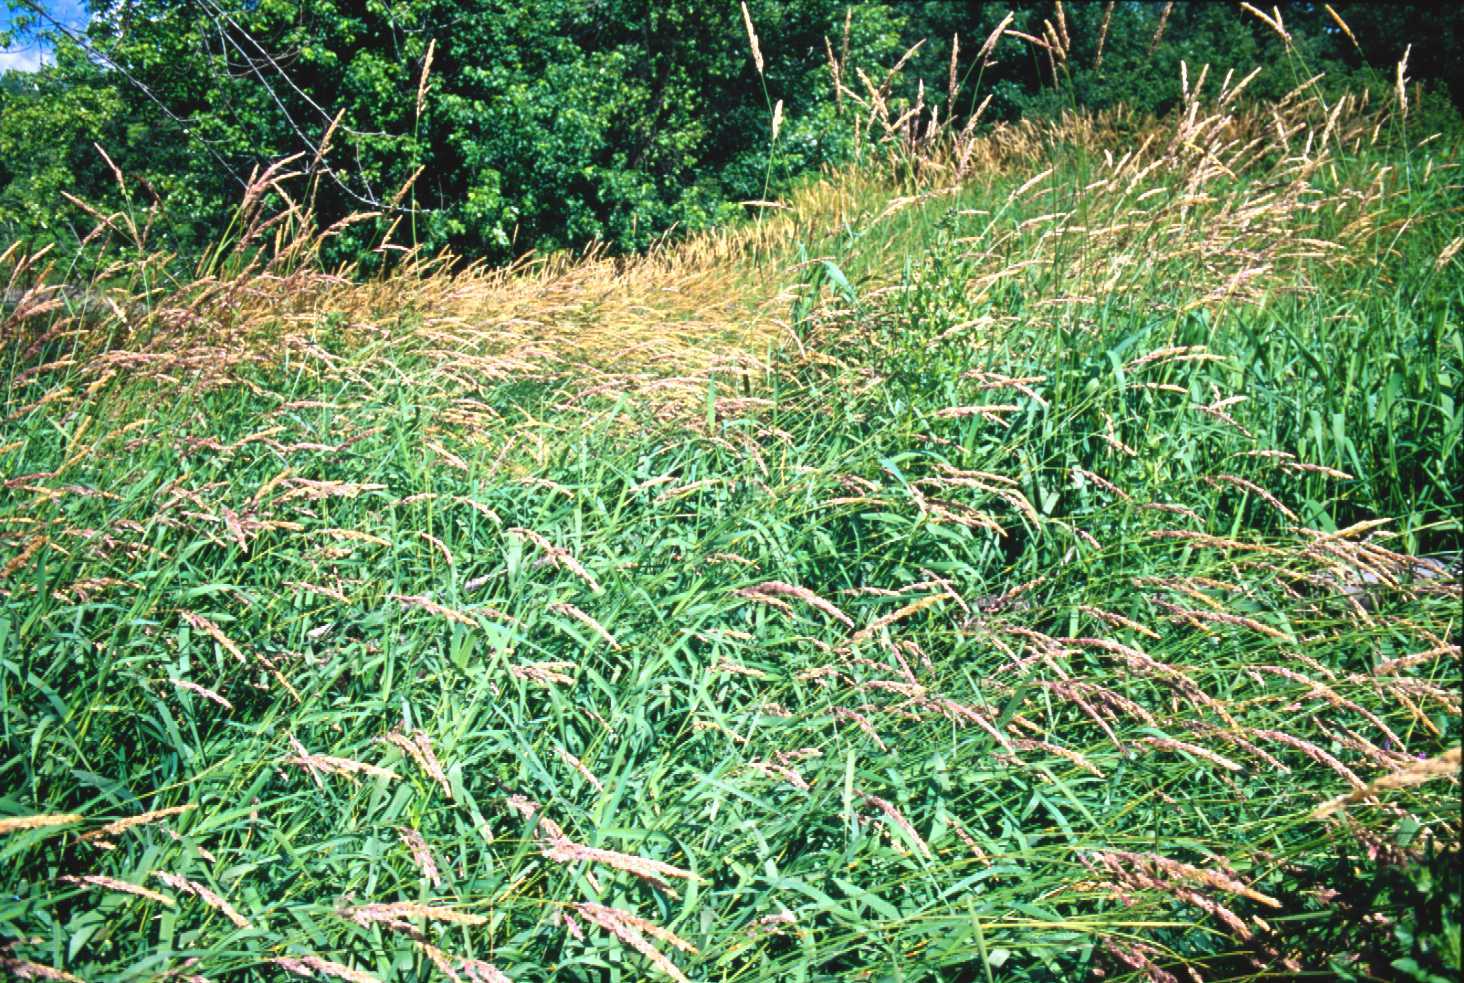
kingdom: Plantae
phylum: Tracheophyta
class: Liliopsida
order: Poales
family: Poaceae
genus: Phalaris
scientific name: Phalaris arundinacea
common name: Reed canary-grass
